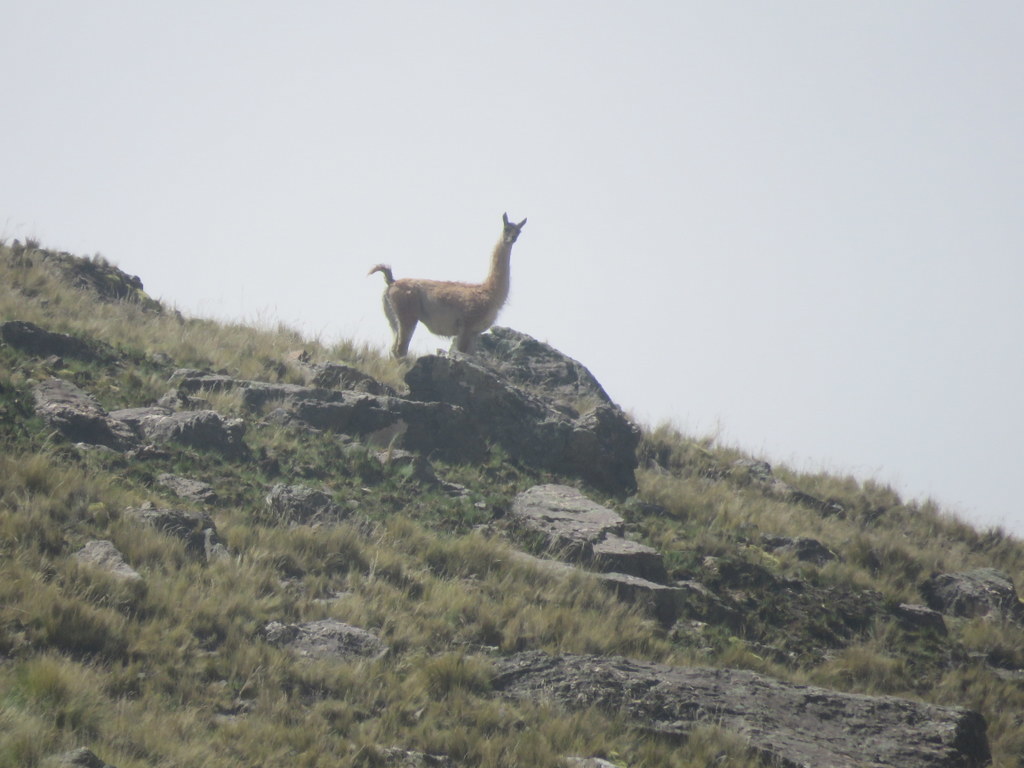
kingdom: Animalia
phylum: Chordata
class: Mammalia
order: Artiodactyla
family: Camelidae
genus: Lama
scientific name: Lama glama
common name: Llama
